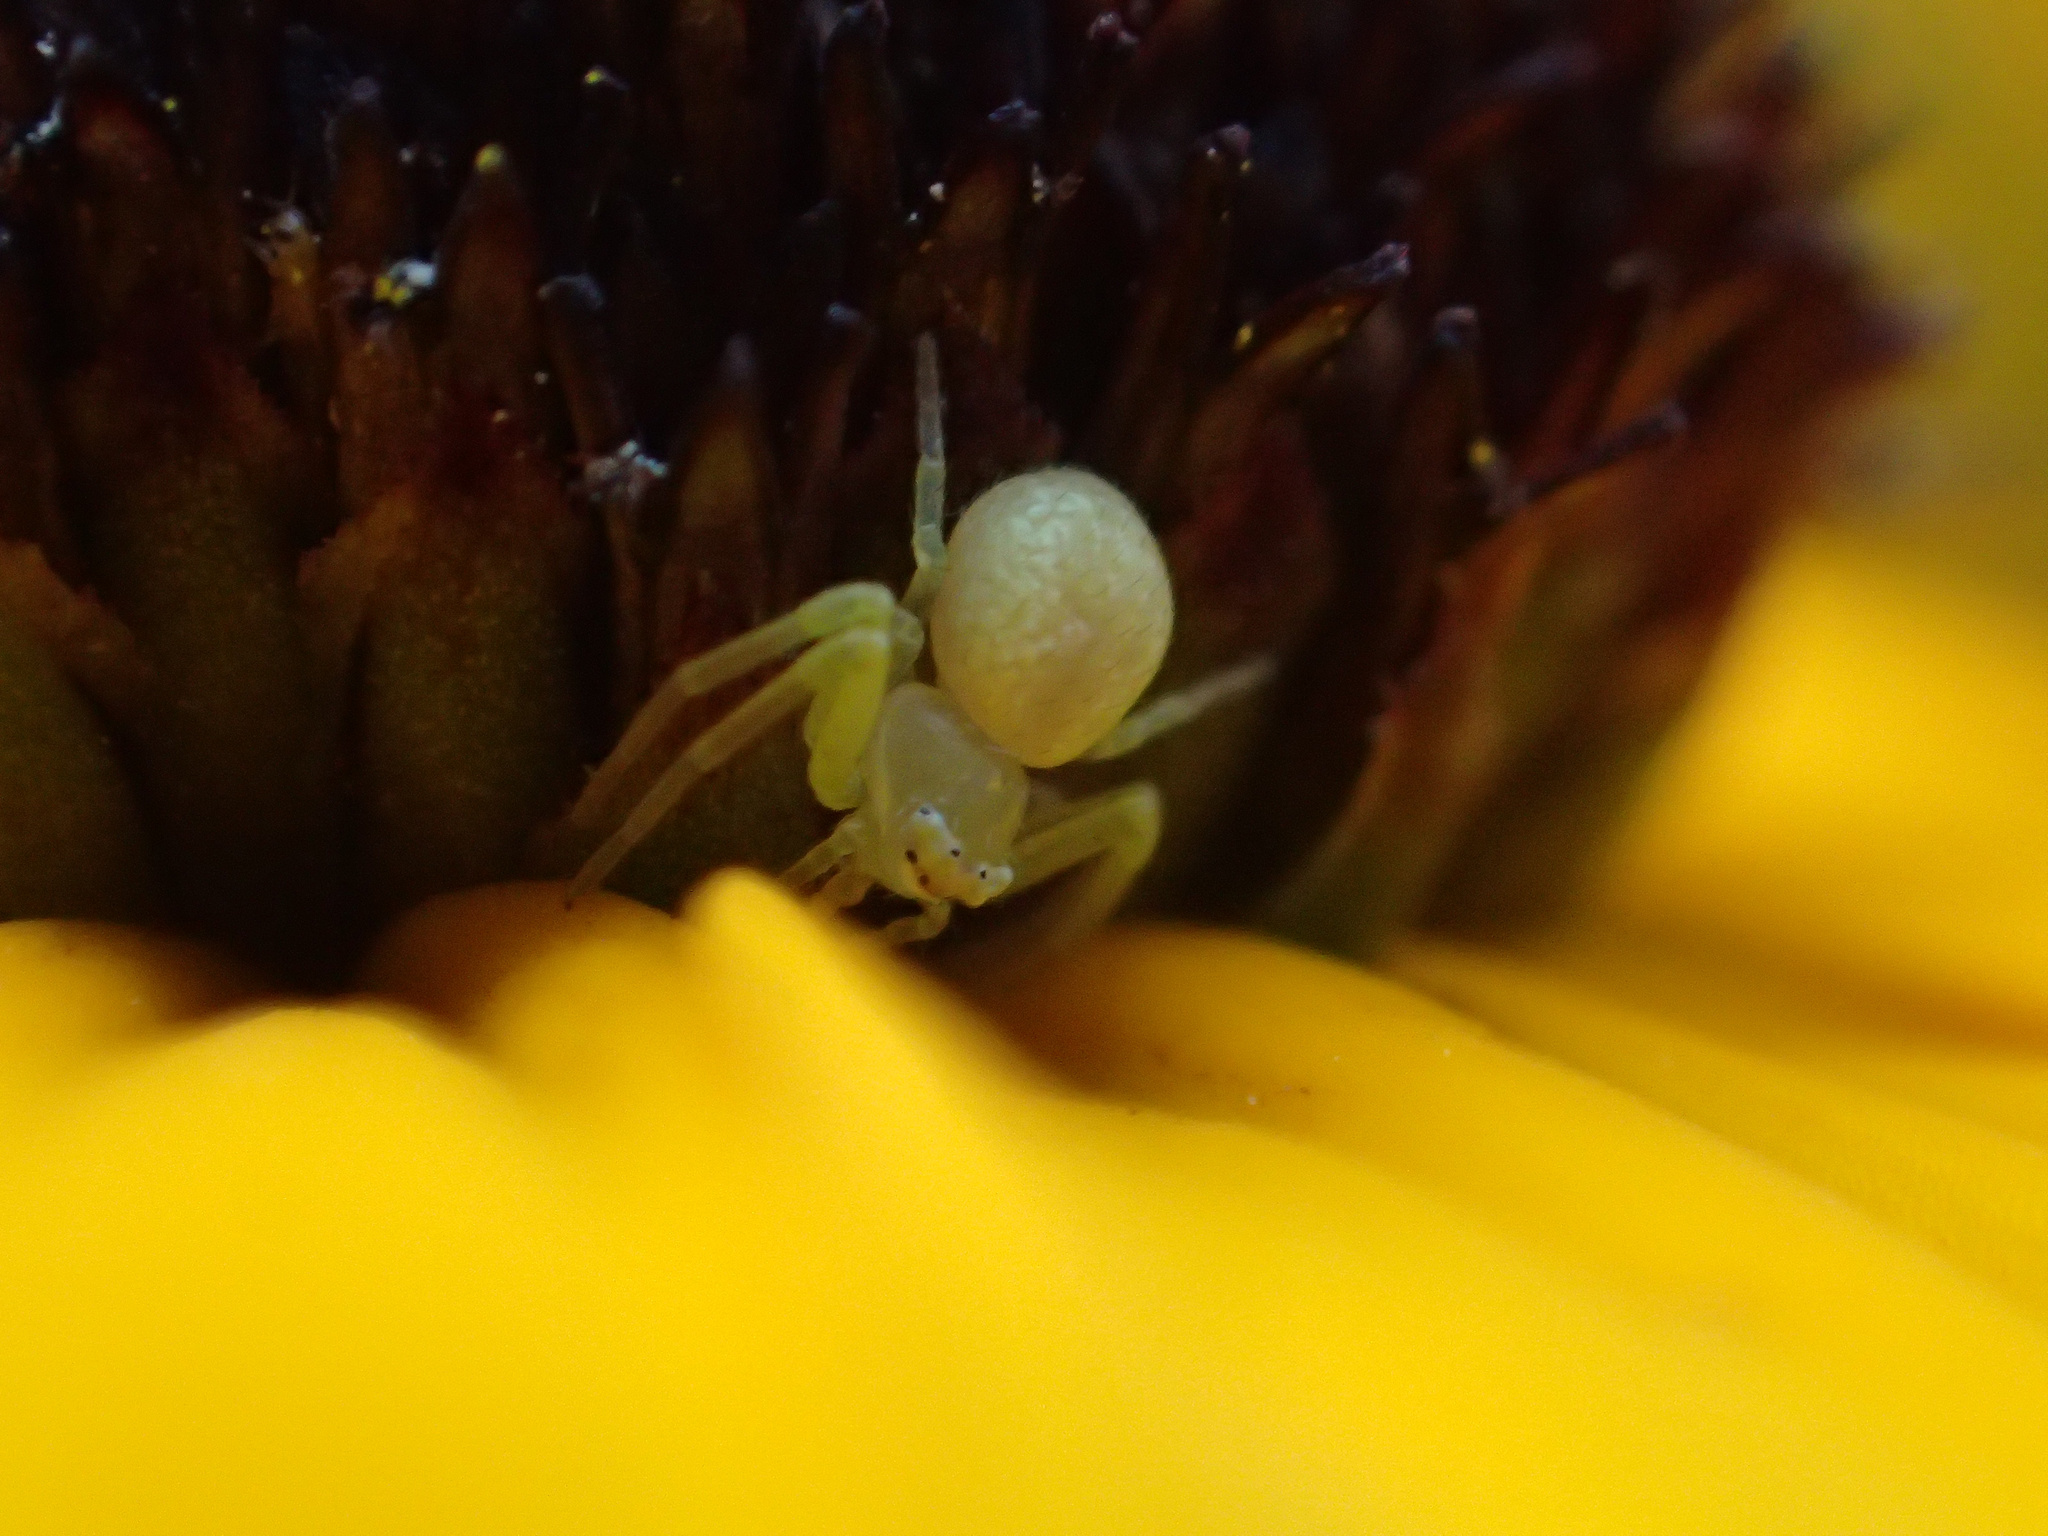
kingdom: Animalia
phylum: Arthropoda
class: Arachnida
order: Araneae
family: Thomisidae
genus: Misumessus
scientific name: Misumessus oblongus
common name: American green crab spider
